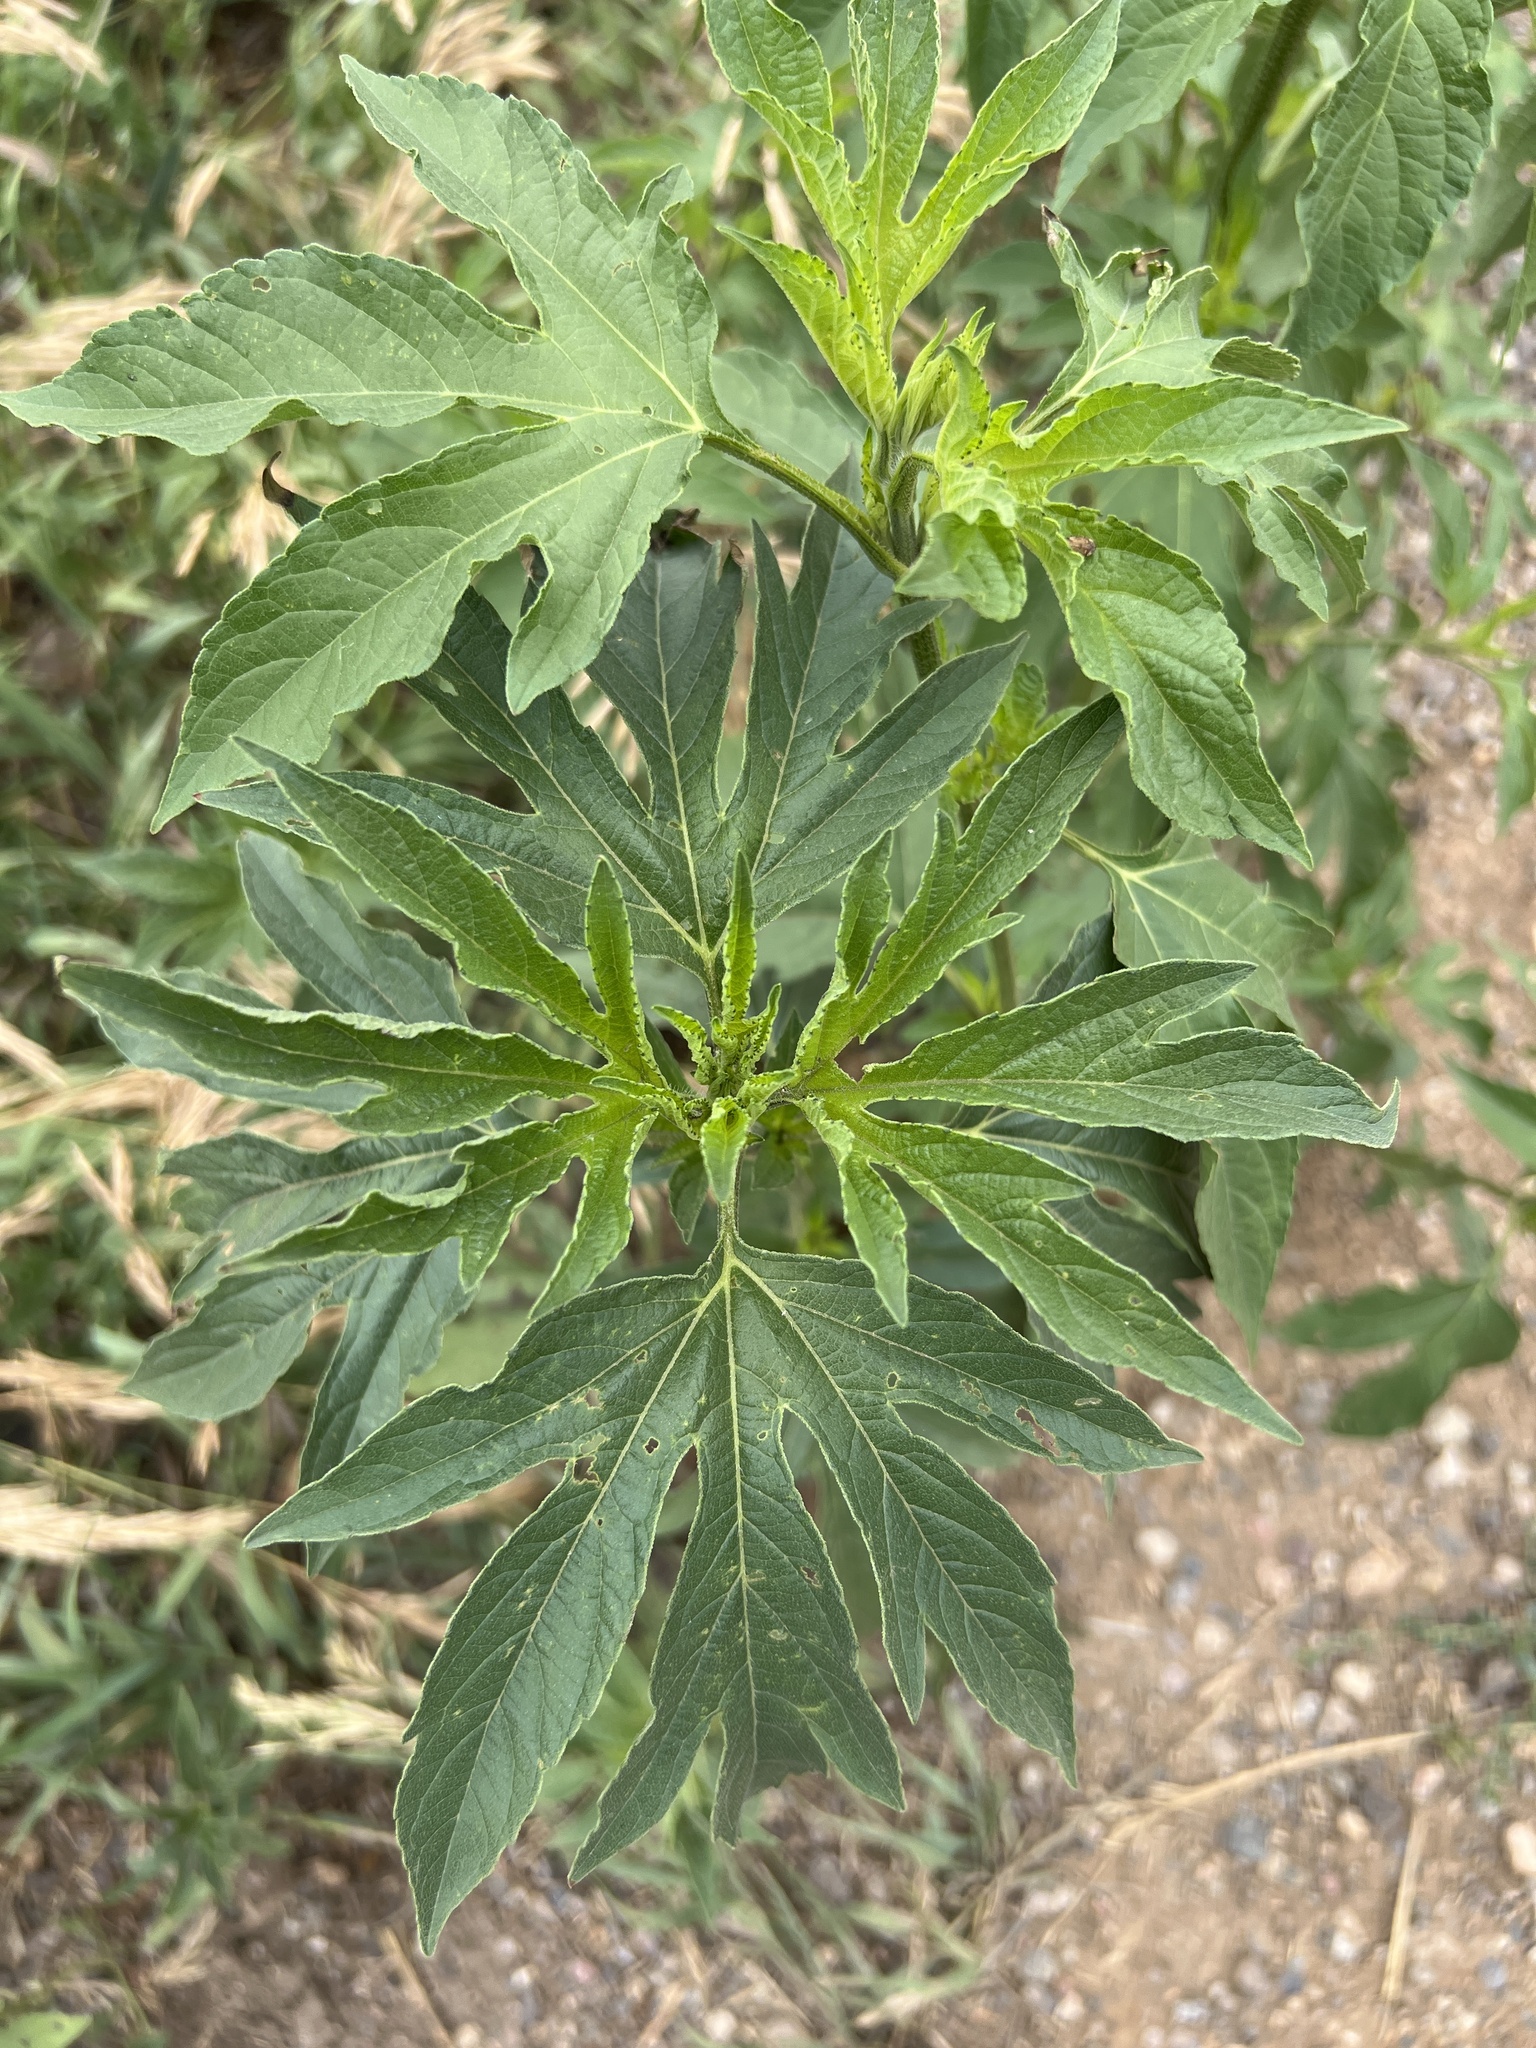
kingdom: Plantae
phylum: Tracheophyta
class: Magnoliopsida
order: Asterales
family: Asteraceae
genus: Ambrosia
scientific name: Ambrosia trifida
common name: Giant ragweed
